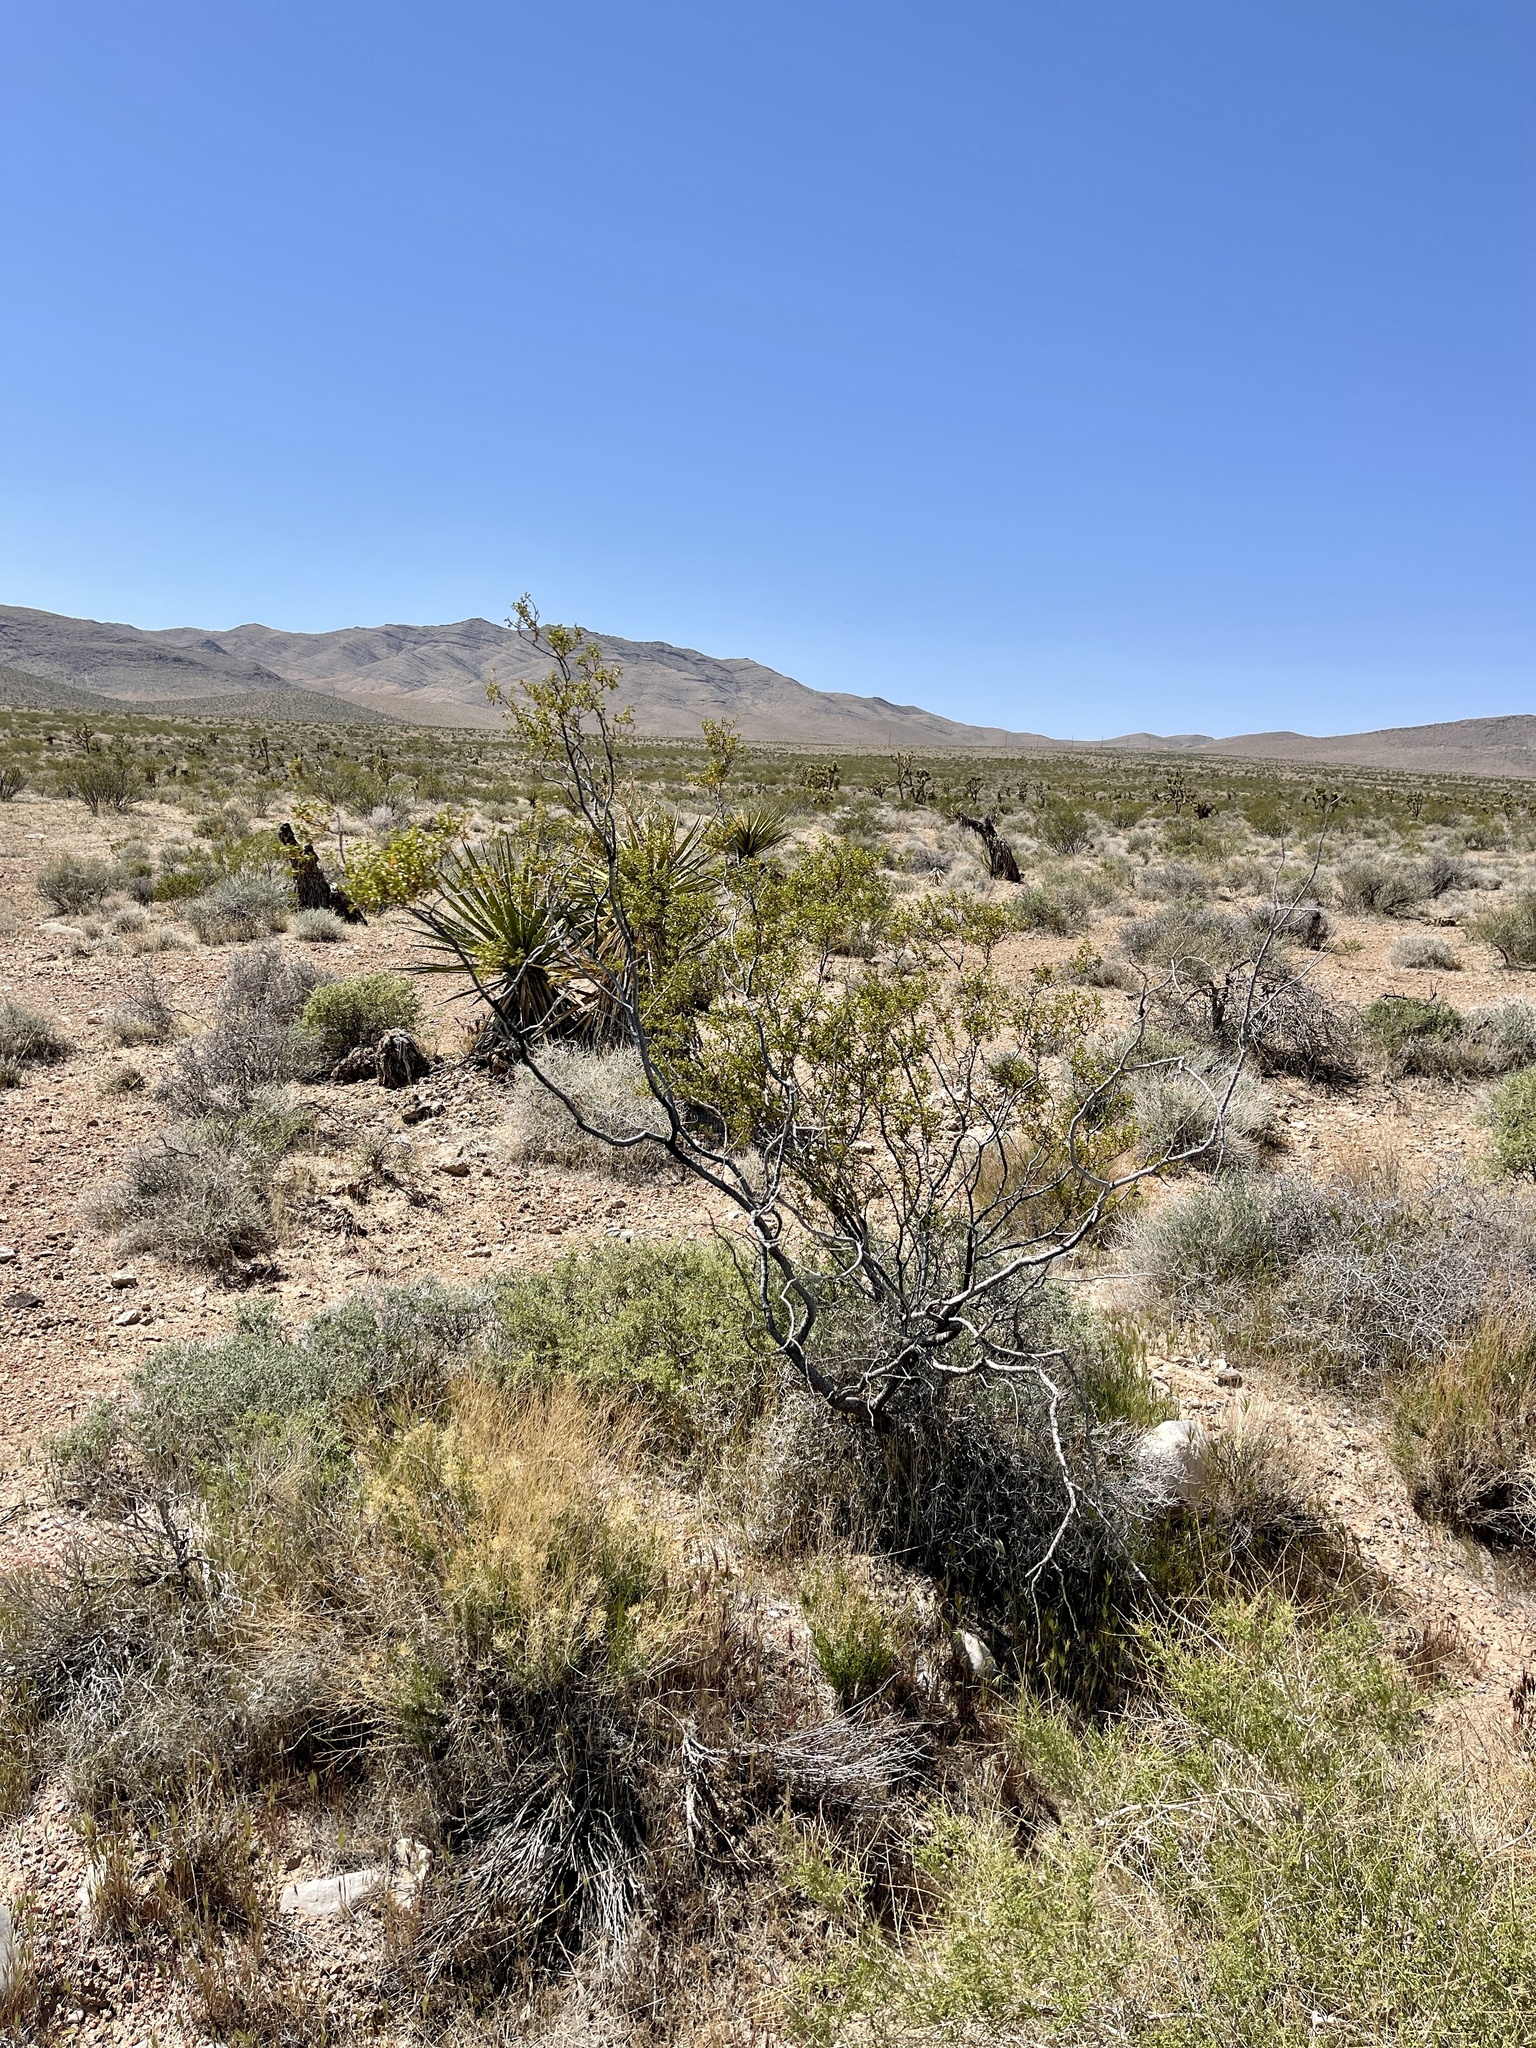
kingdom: Plantae
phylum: Tracheophyta
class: Magnoliopsida
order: Zygophyllales
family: Zygophyllaceae
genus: Larrea
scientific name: Larrea tridentata
